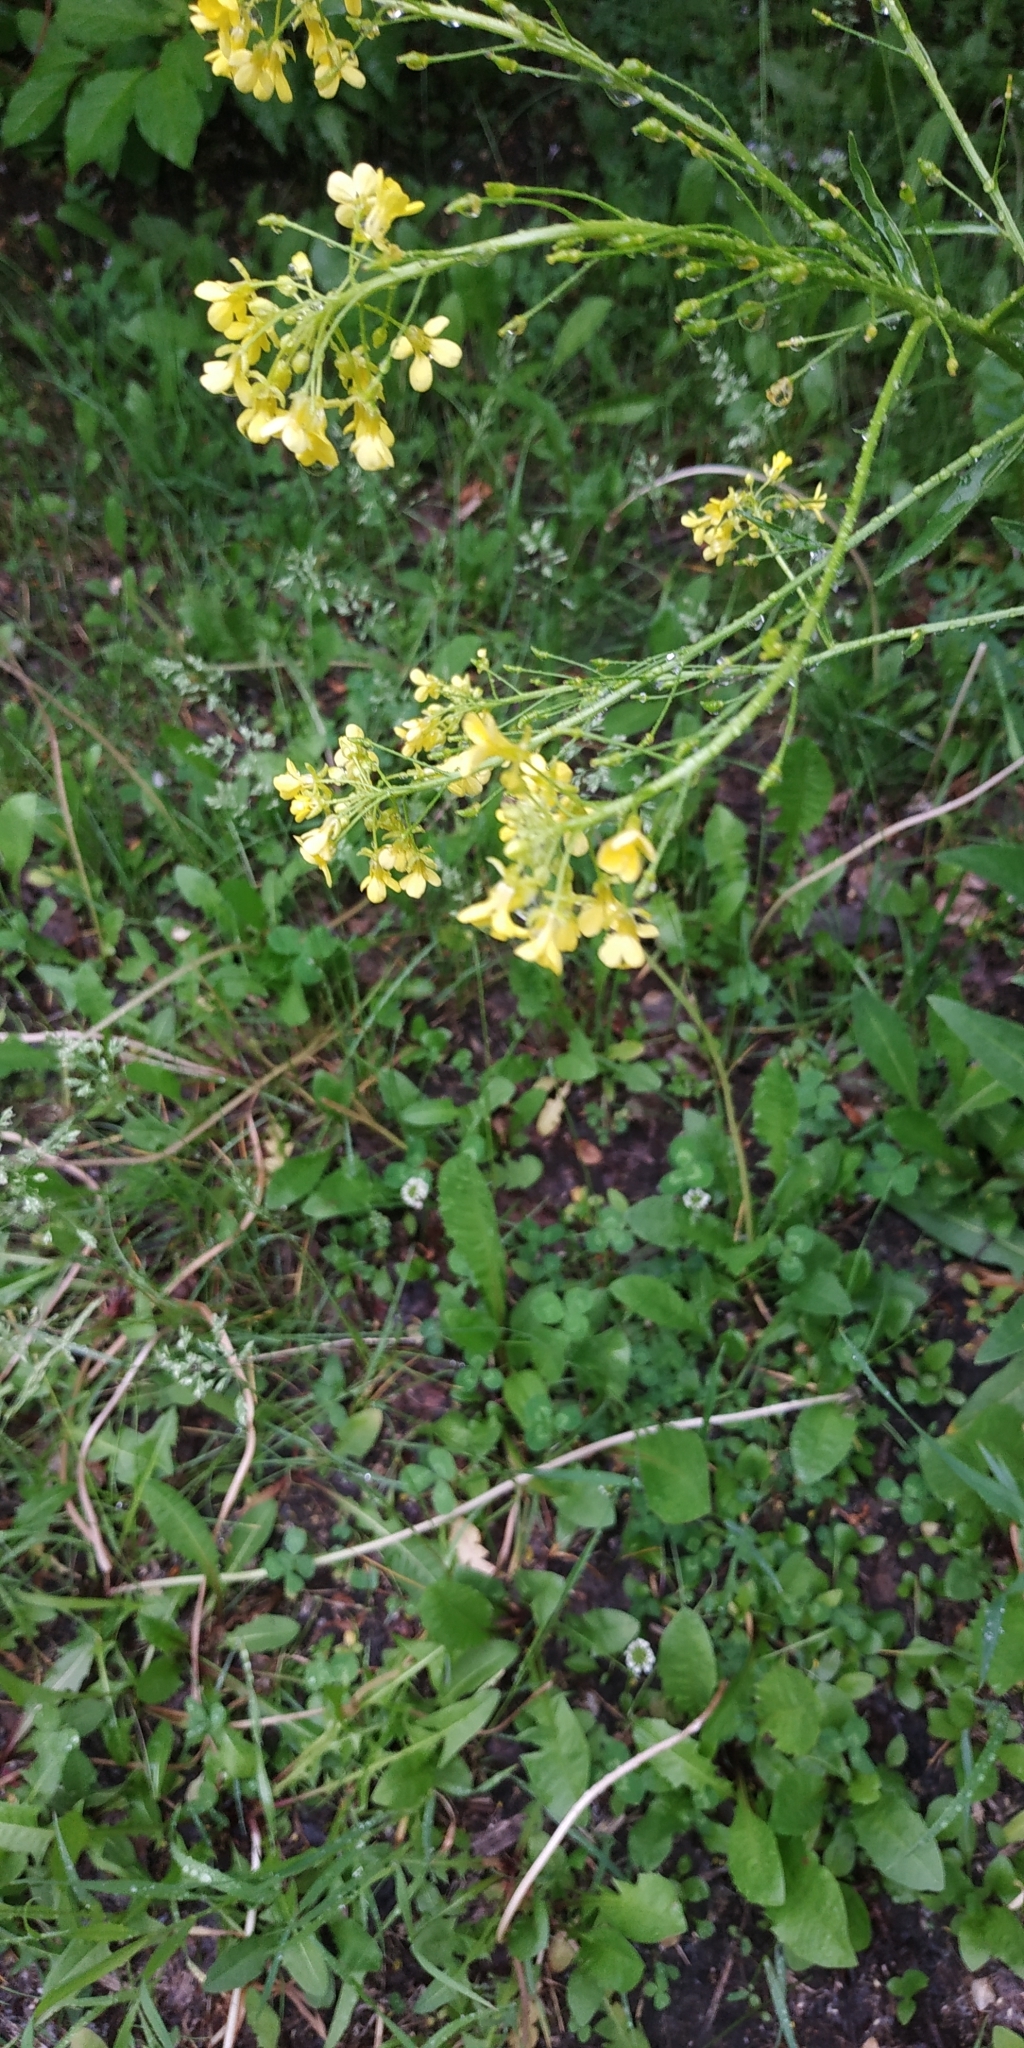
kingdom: Plantae
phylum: Tracheophyta
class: Magnoliopsida
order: Brassicales
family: Brassicaceae
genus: Bunias
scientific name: Bunias orientalis
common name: Warty-cabbage
